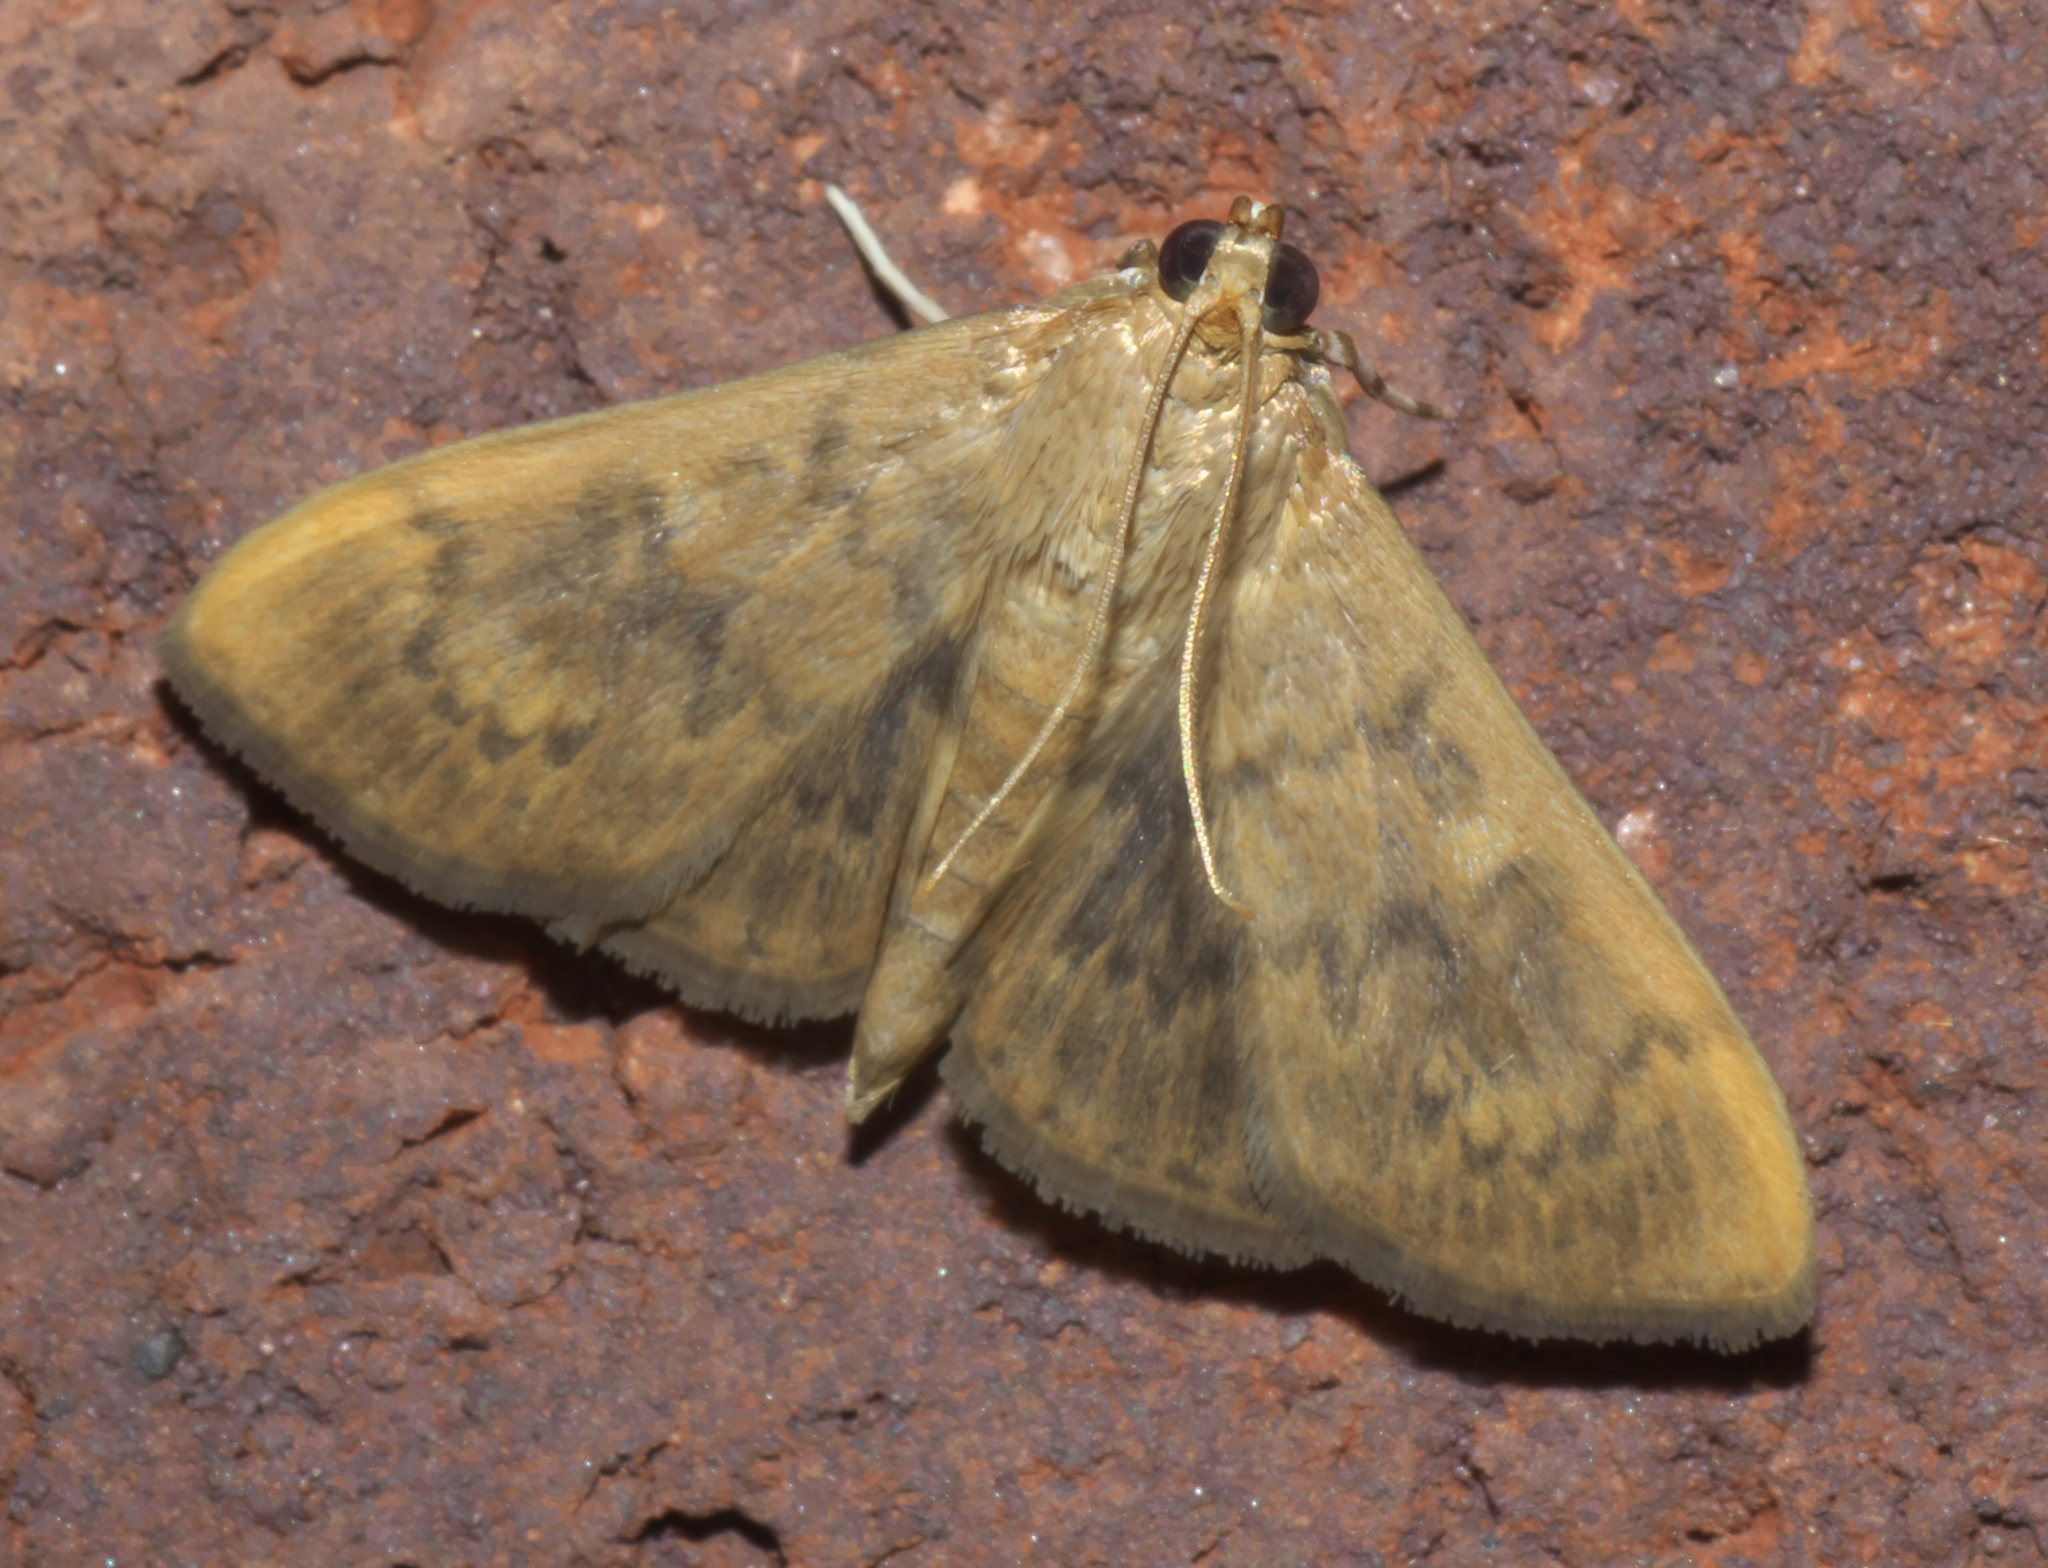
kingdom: Animalia
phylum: Arthropoda
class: Insecta
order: Lepidoptera
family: Crambidae
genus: Syllepte
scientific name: Syllepte obscuralis
